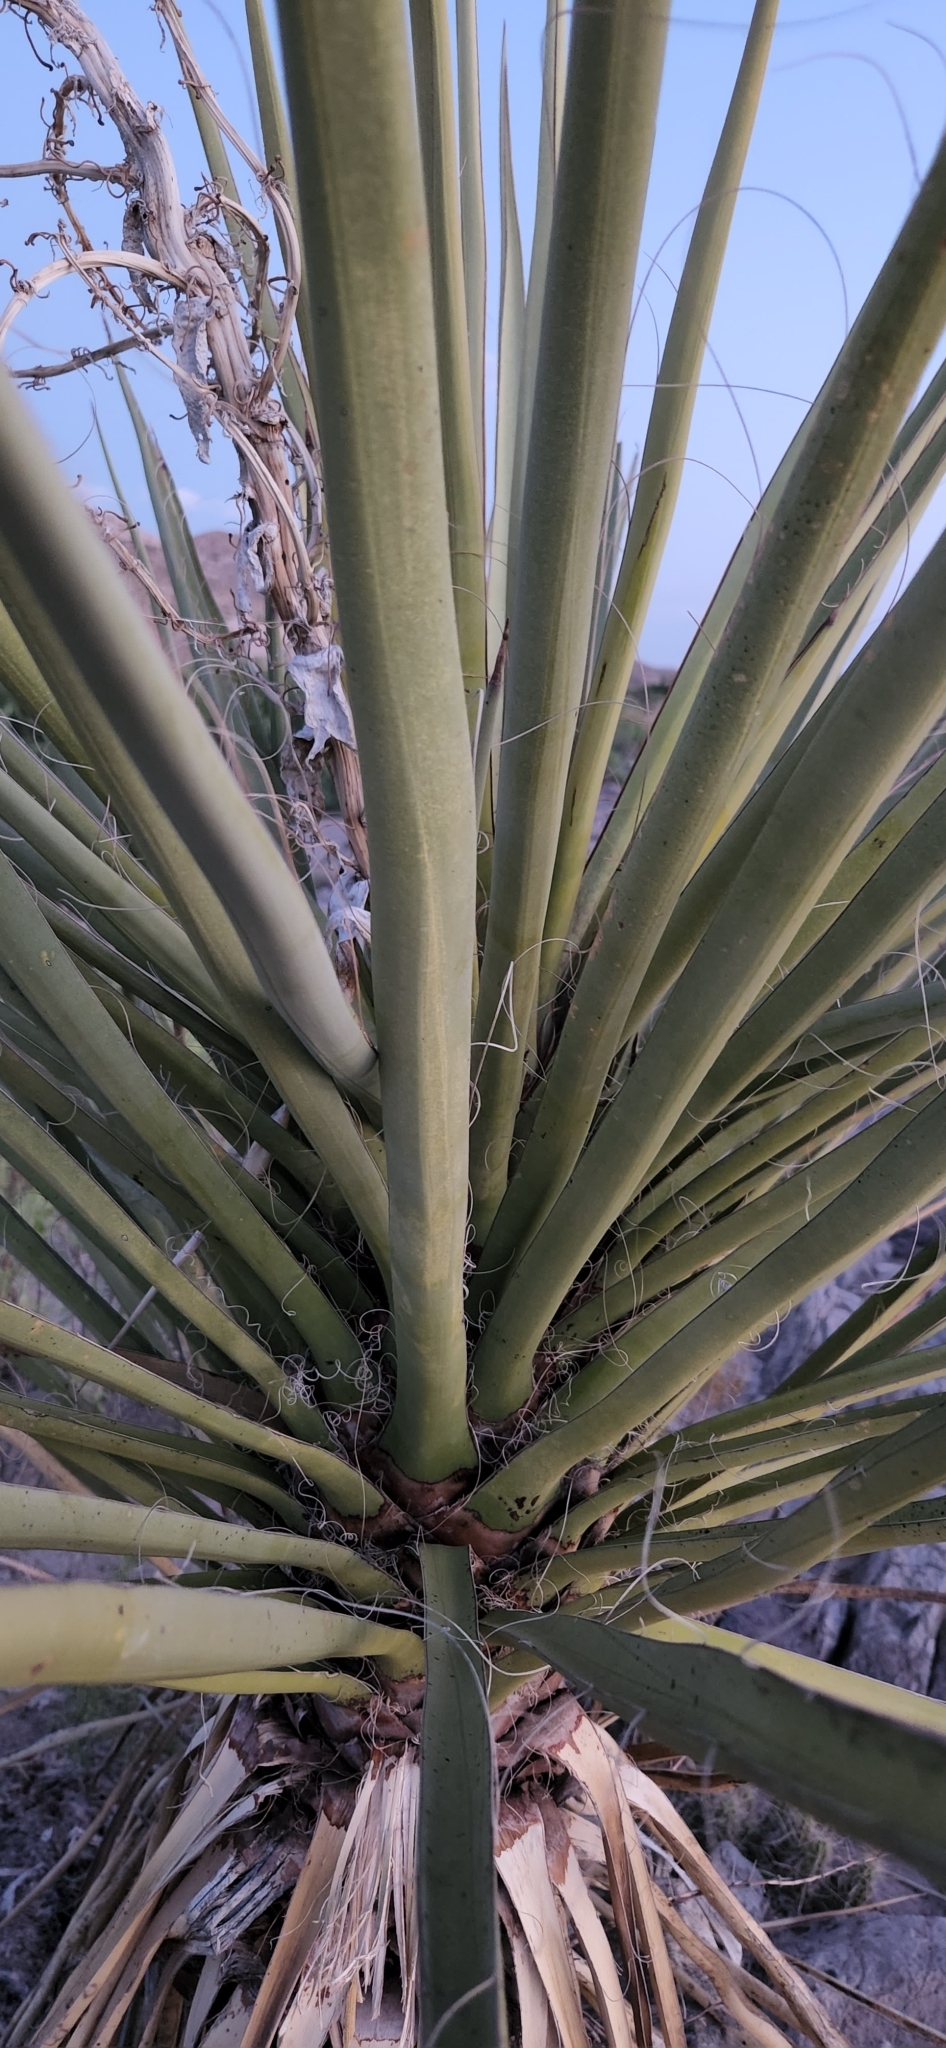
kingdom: Plantae
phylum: Tracheophyta
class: Liliopsida
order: Asparagales
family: Asparagaceae
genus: Yucca
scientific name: Yucca treculiana
